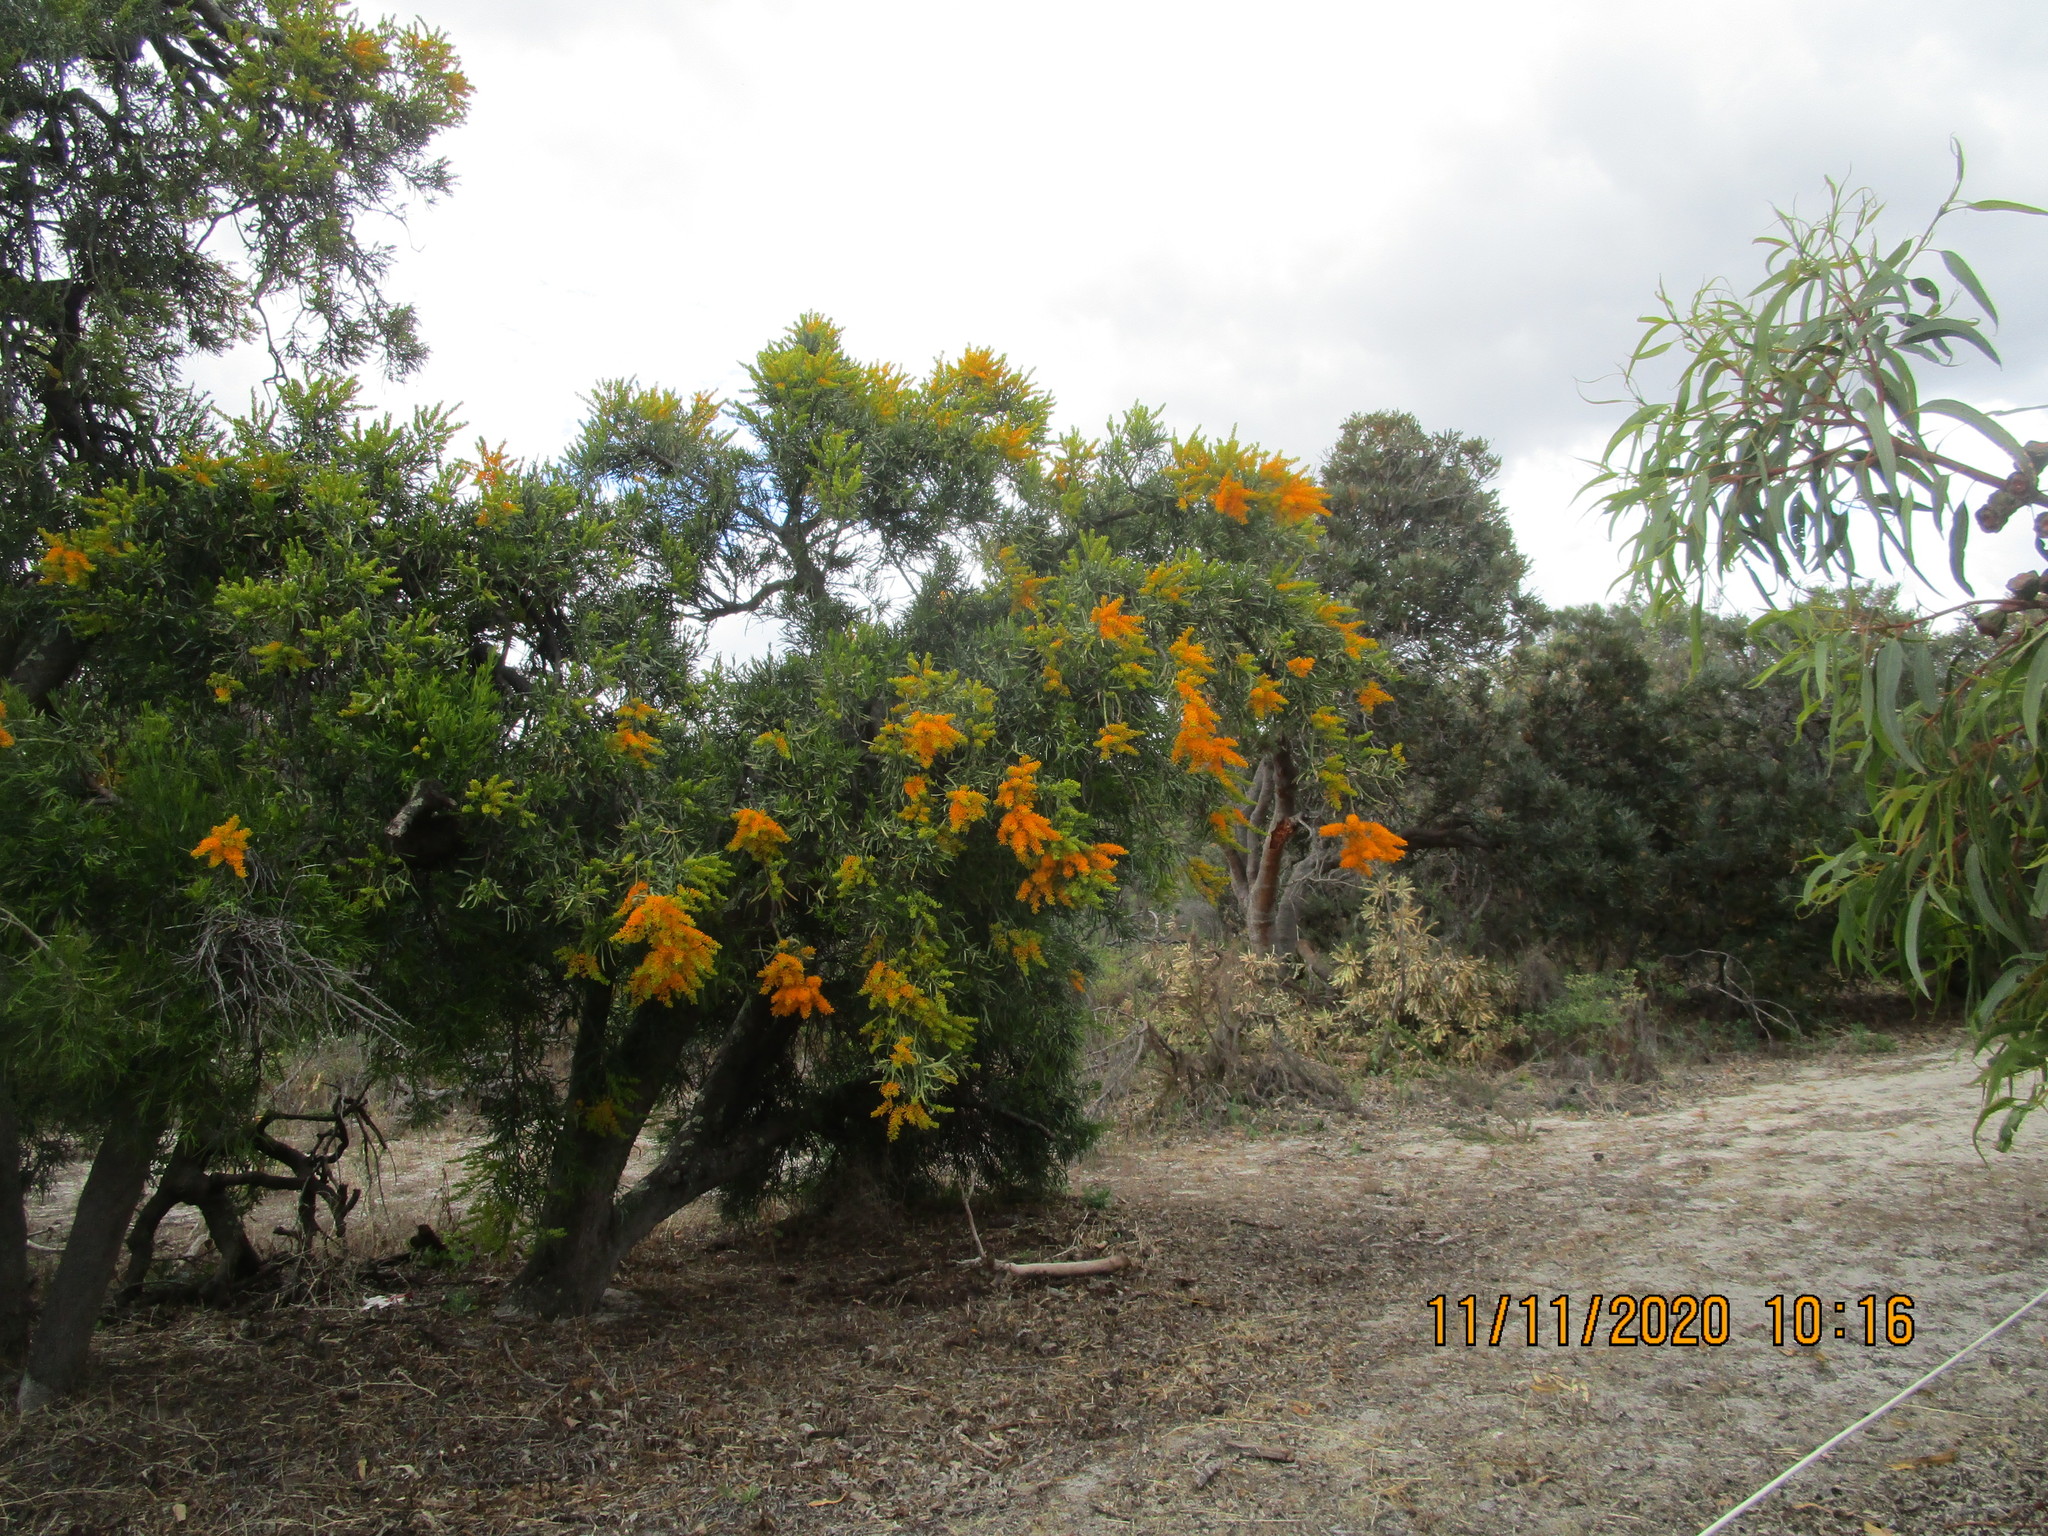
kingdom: Plantae
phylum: Tracheophyta
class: Magnoliopsida
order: Santalales
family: Loranthaceae
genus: Nuytsia
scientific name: Nuytsia floribunda
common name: Western australian christmastree
